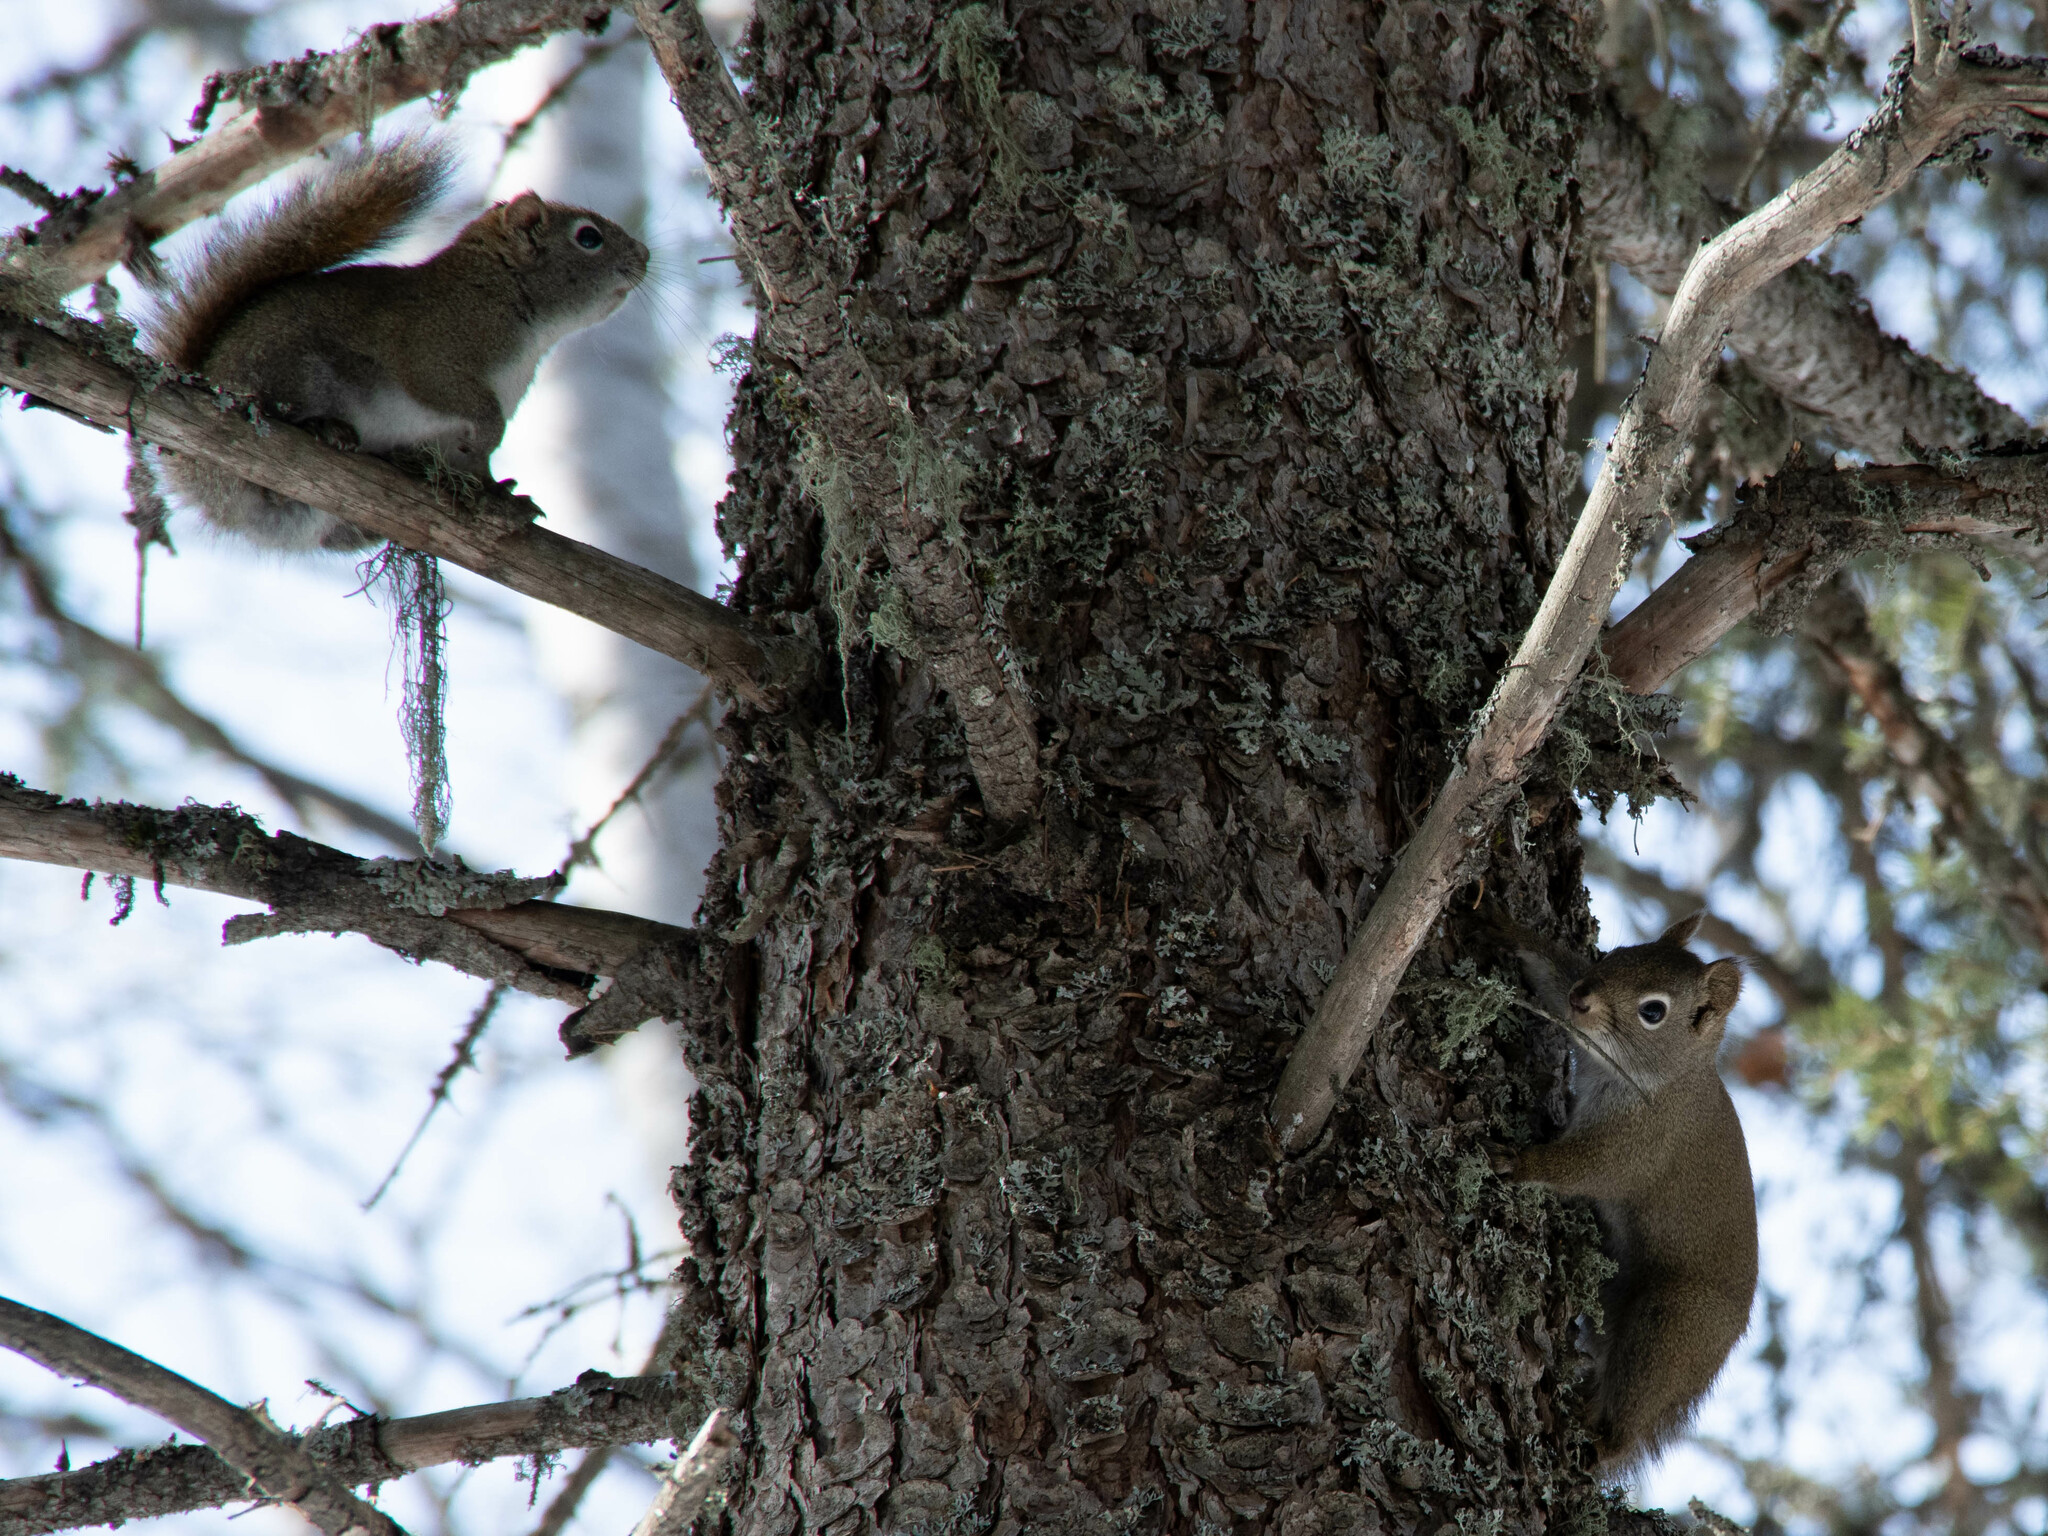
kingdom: Animalia
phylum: Chordata
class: Mammalia
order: Rodentia
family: Sciuridae
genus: Tamiasciurus
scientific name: Tamiasciurus hudsonicus
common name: Red squirrel
